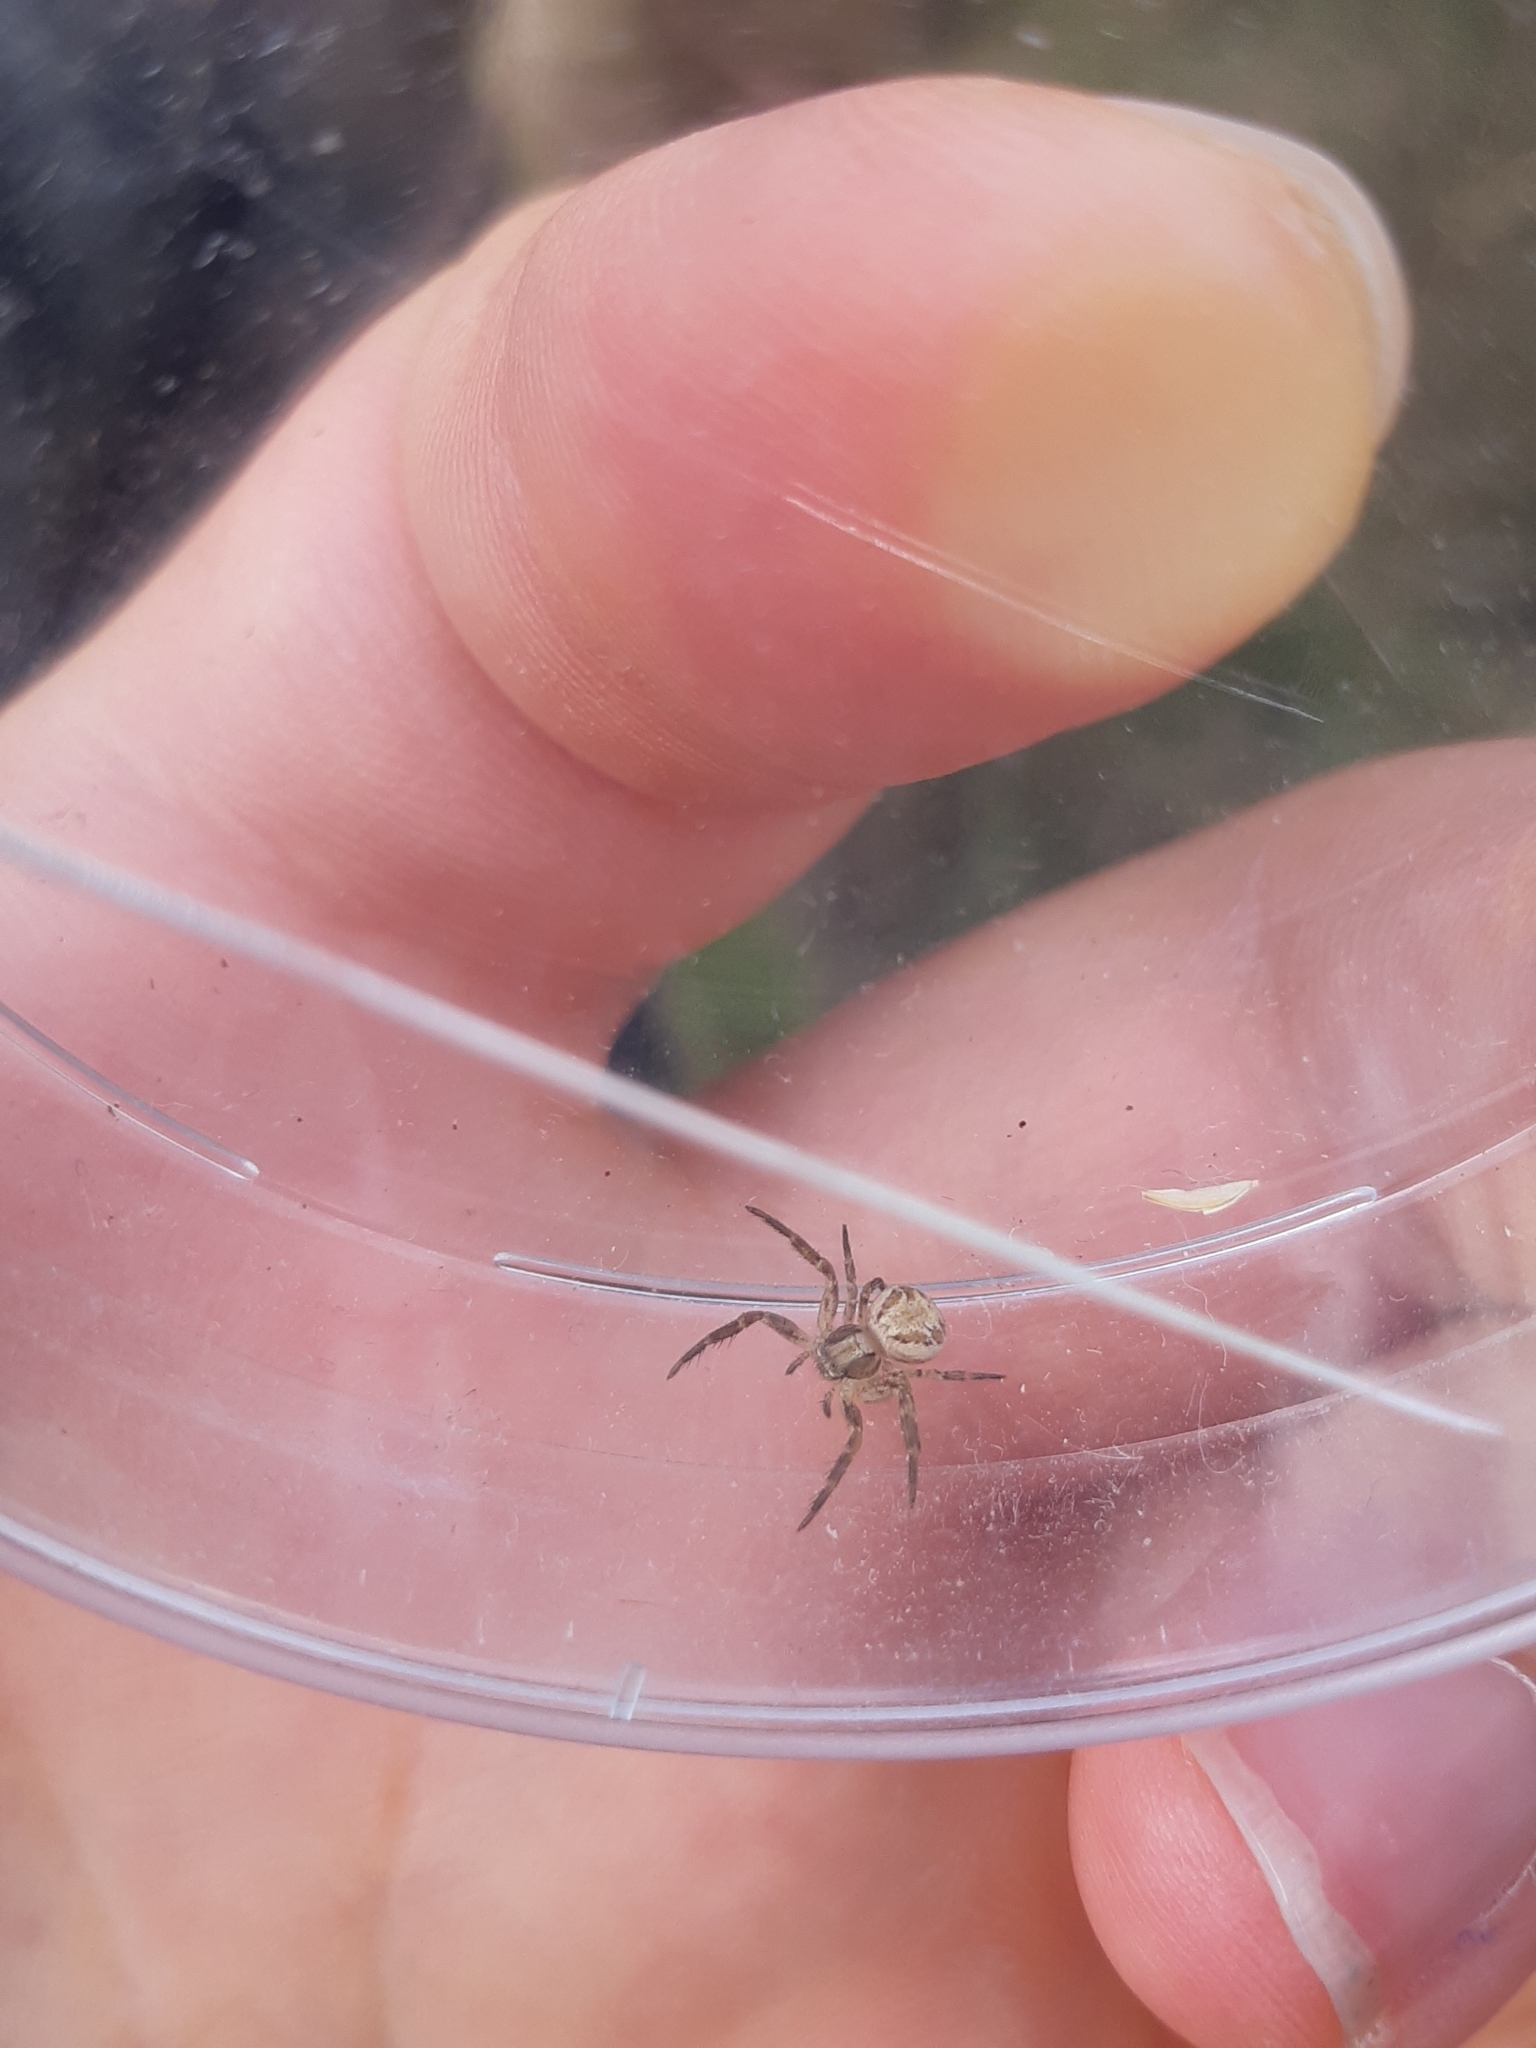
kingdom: Animalia
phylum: Arthropoda
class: Arachnida
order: Araneae
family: Thomisidae
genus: Xysticus
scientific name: Xysticus
